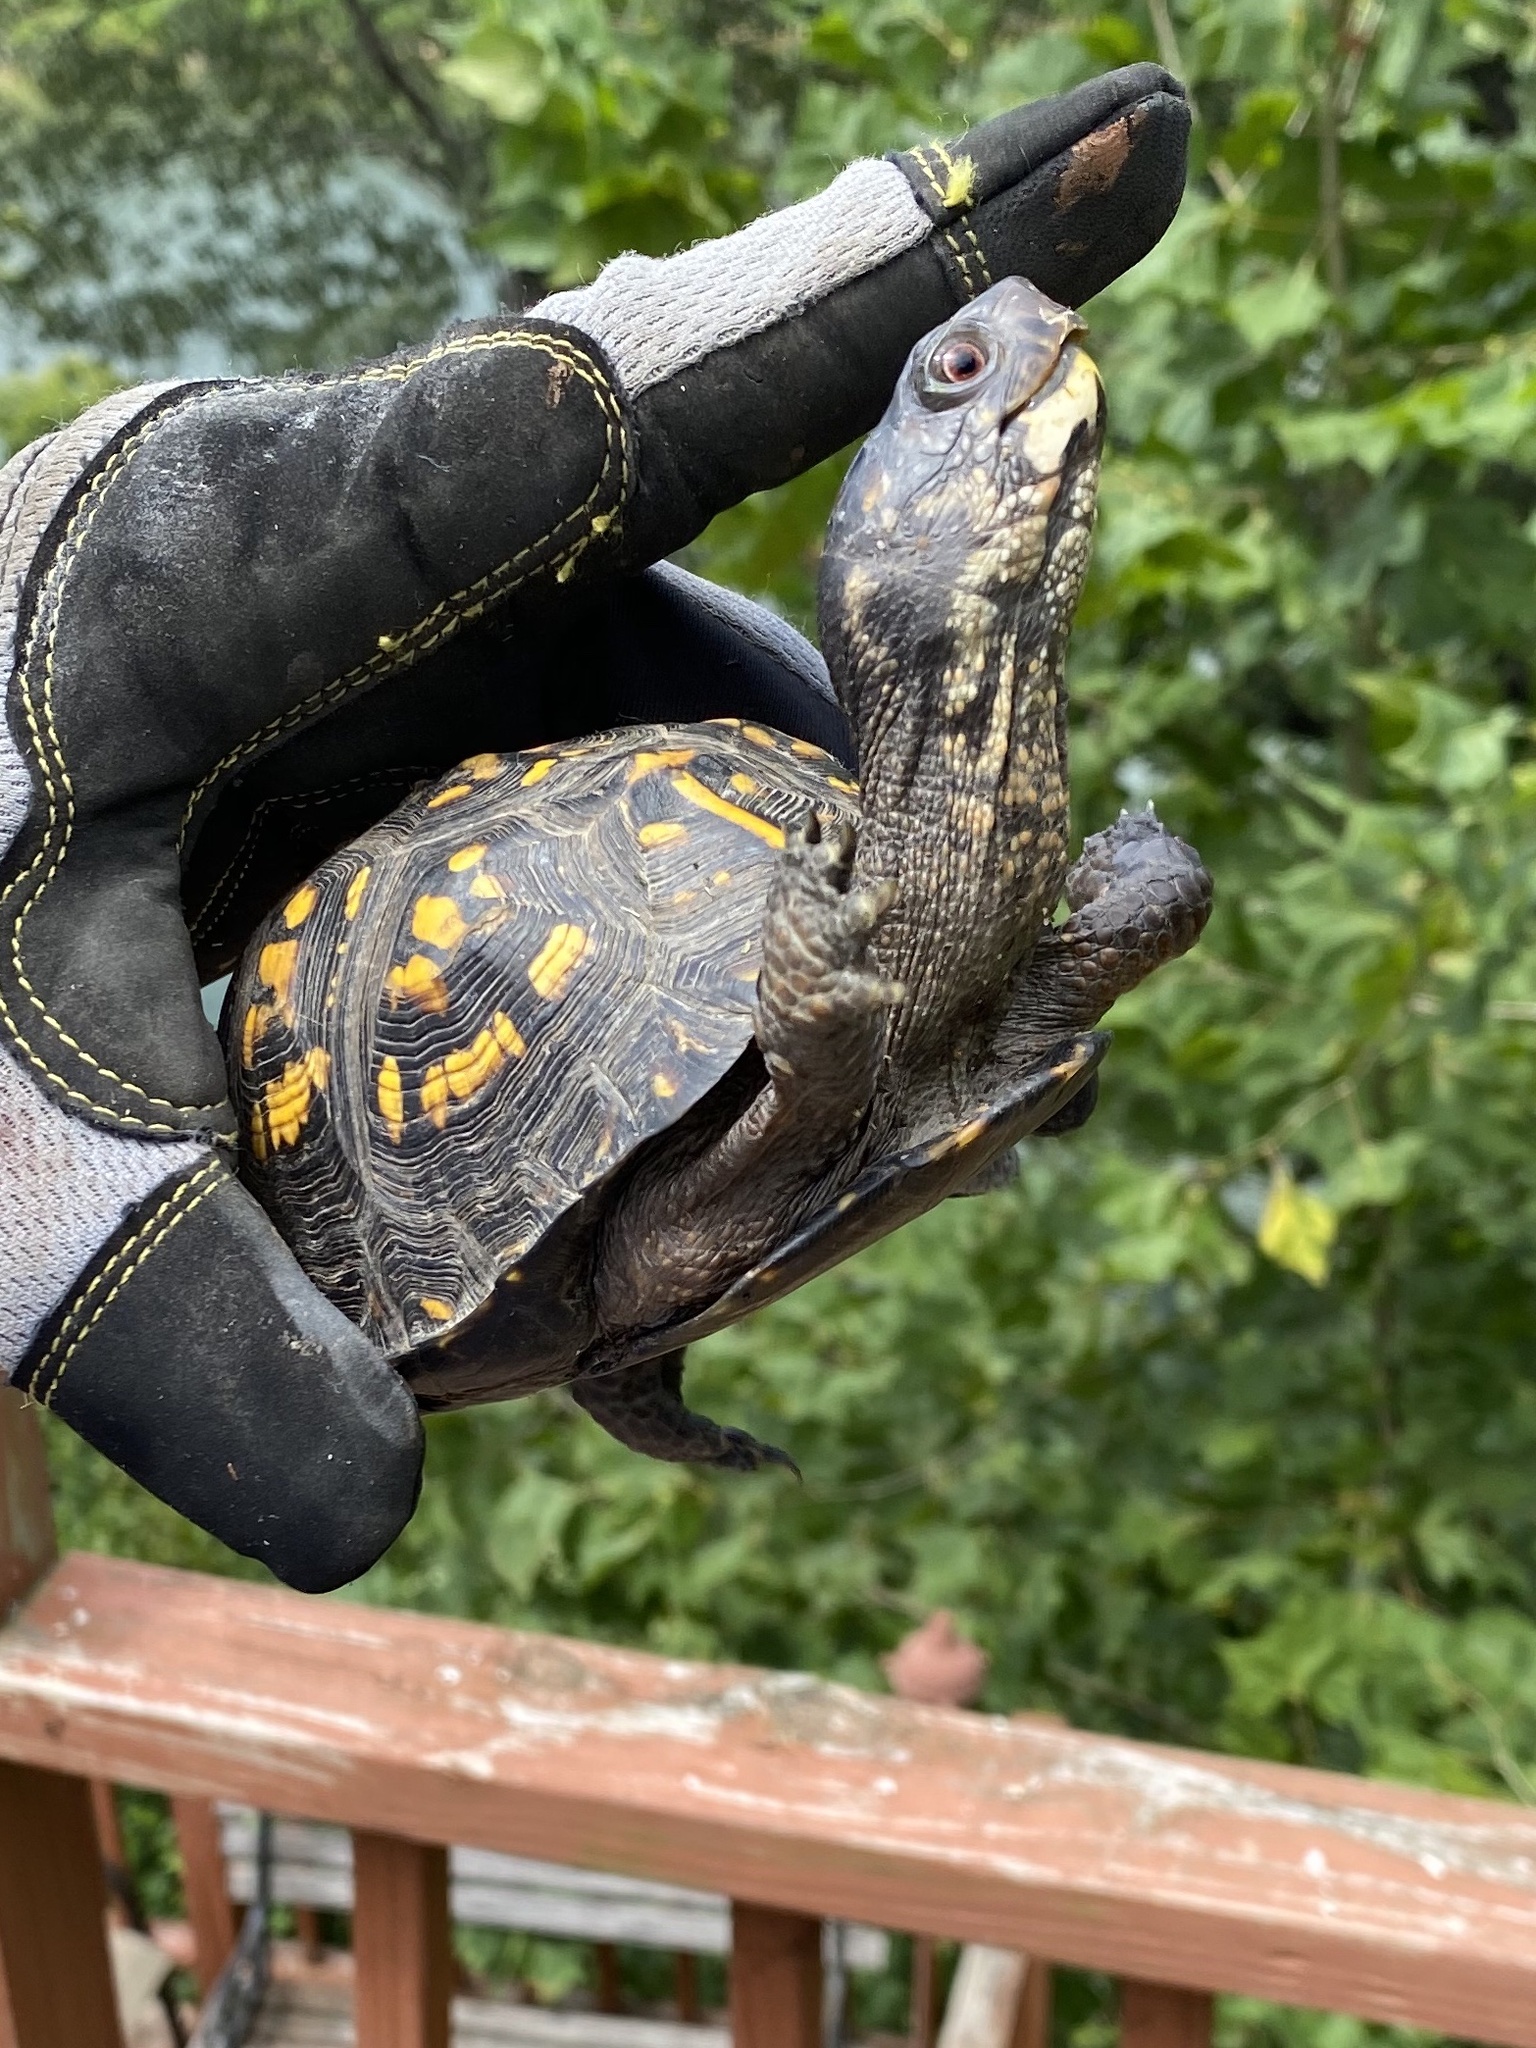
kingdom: Animalia
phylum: Chordata
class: Testudines
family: Emydidae
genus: Terrapene
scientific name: Terrapene carolina
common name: Common box turtle
